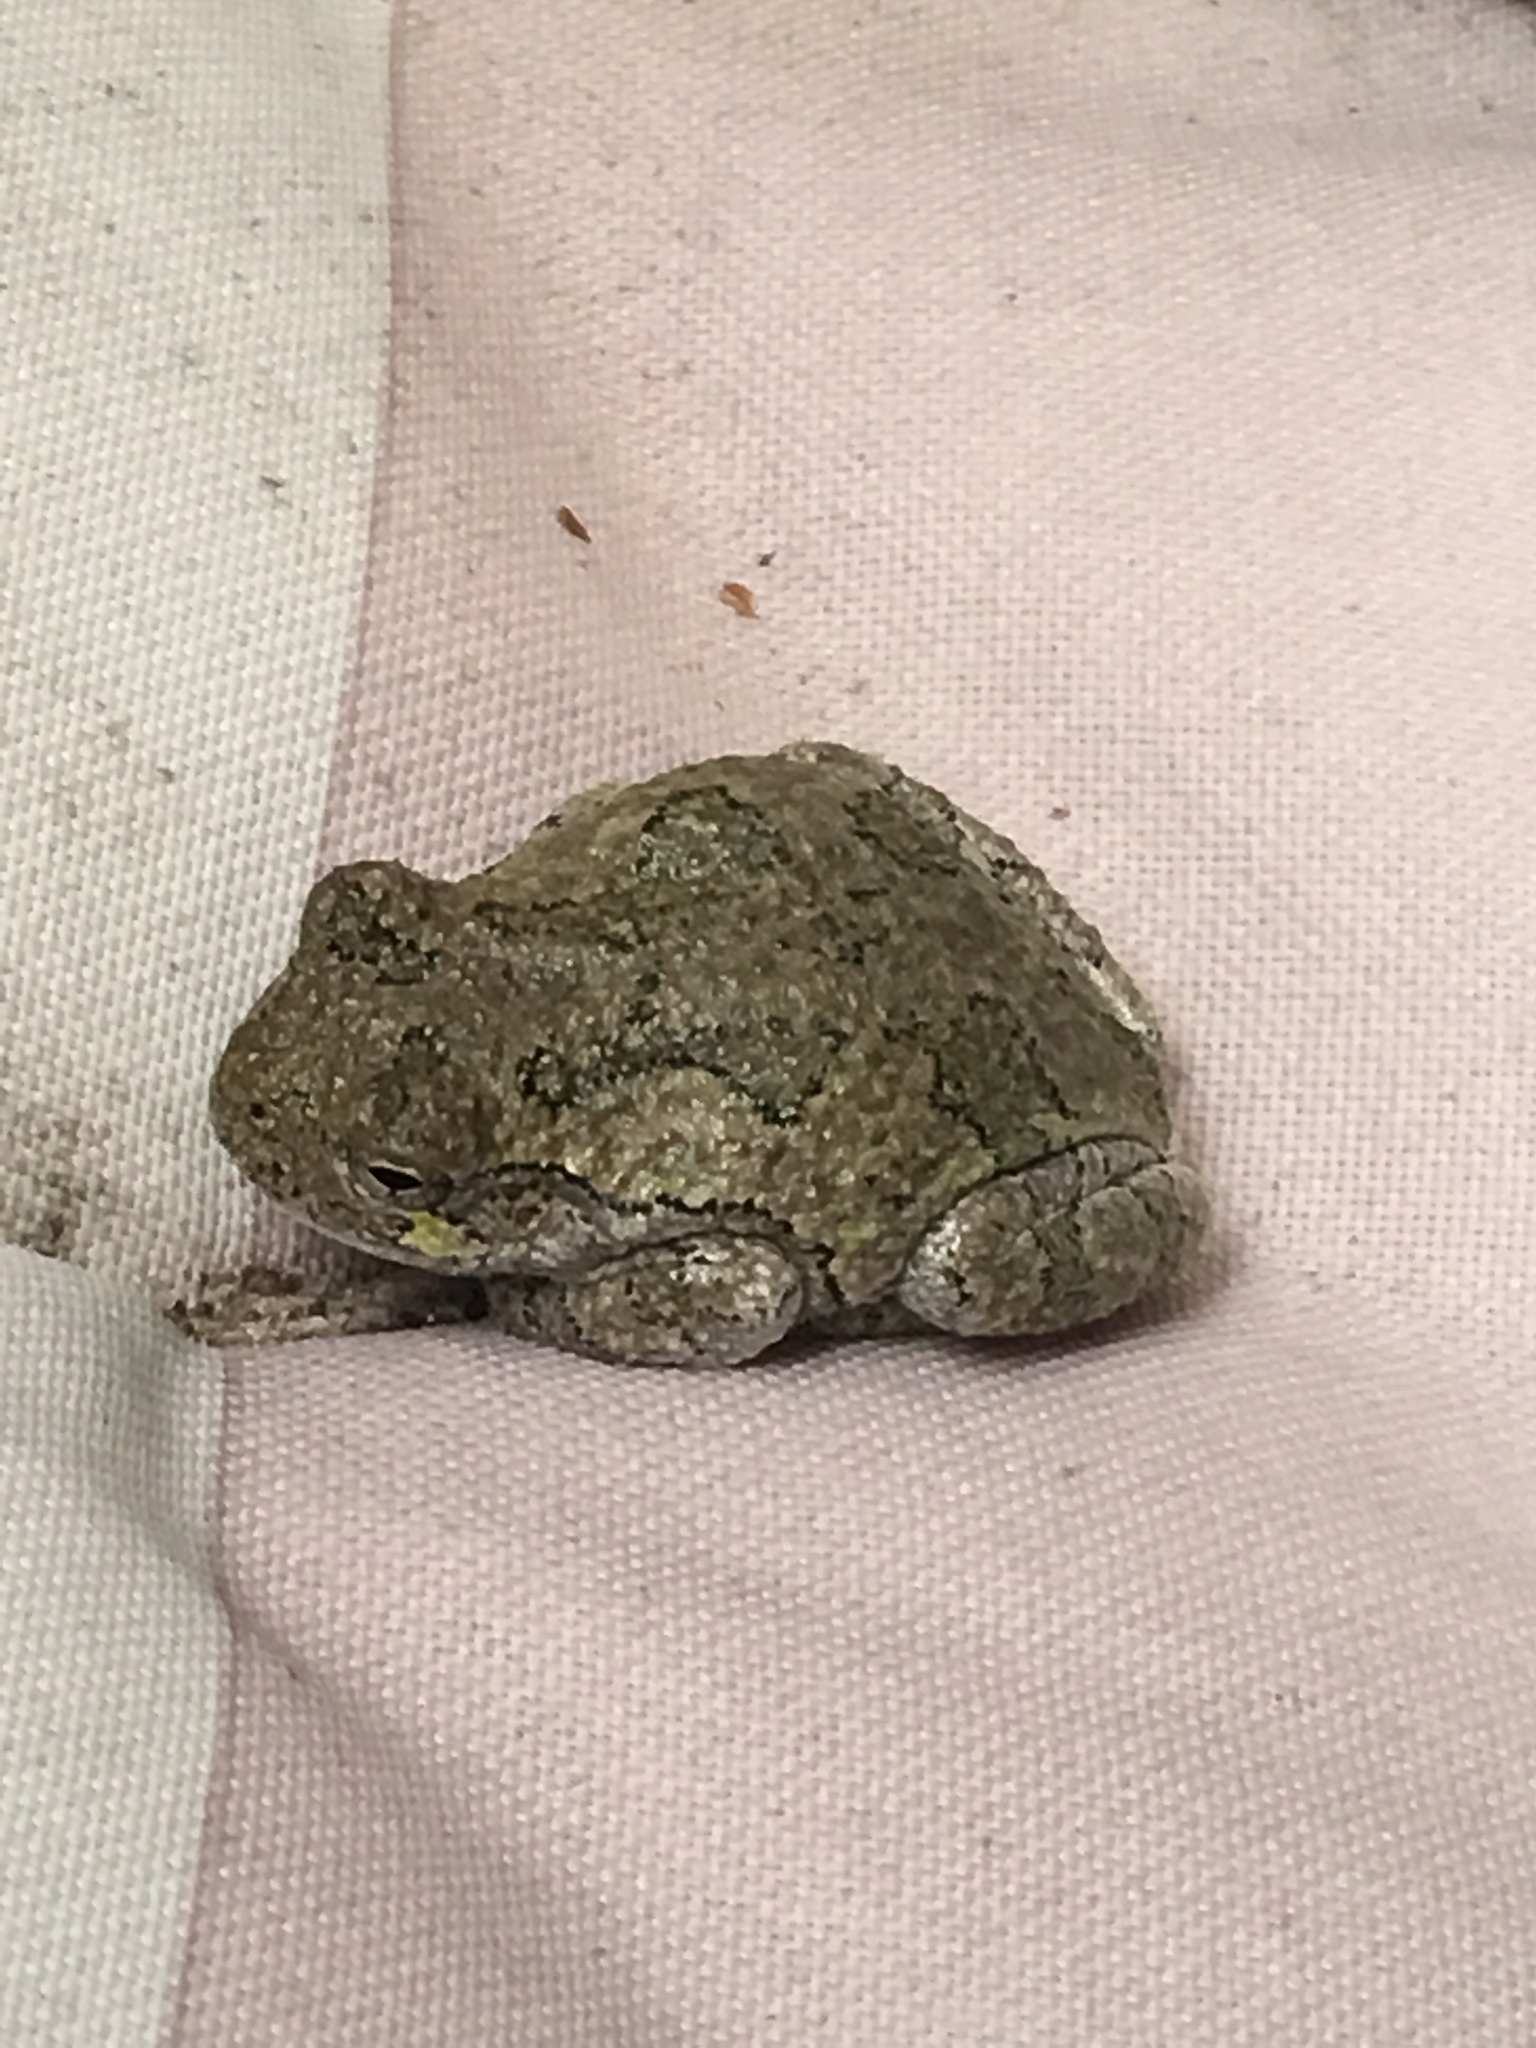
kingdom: Animalia
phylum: Chordata
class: Amphibia
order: Anura
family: Hylidae
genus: Dryophytes
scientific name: Dryophytes versicolor
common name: Gray treefrog
